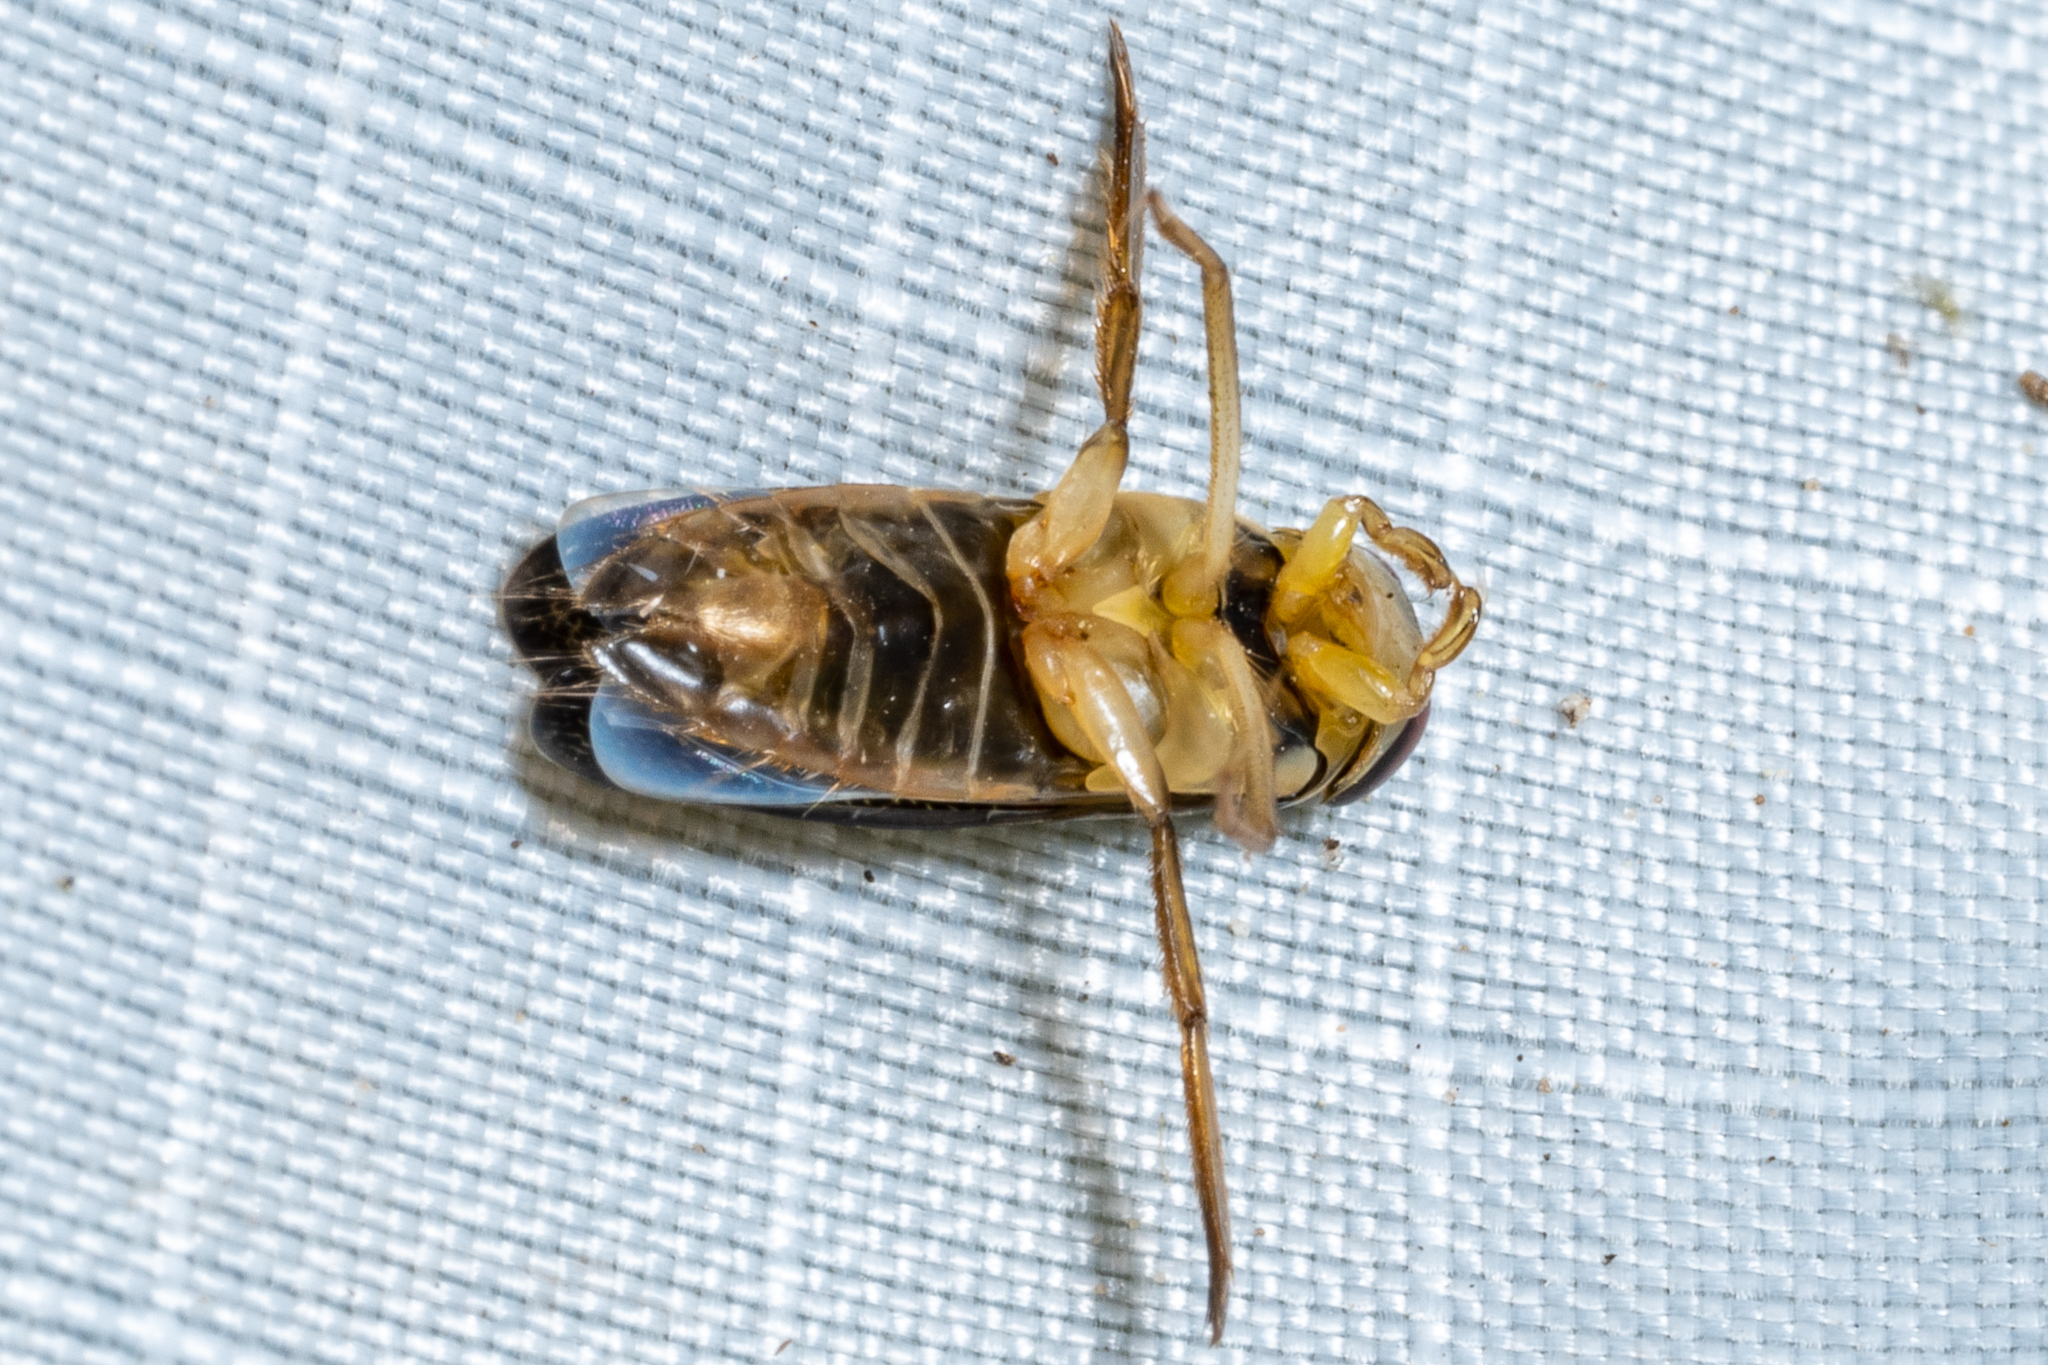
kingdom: Animalia
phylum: Arthropoda
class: Insecta
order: Hemiptera
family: Corixidae
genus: Hesperocorixa
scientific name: Hesperocorixa
